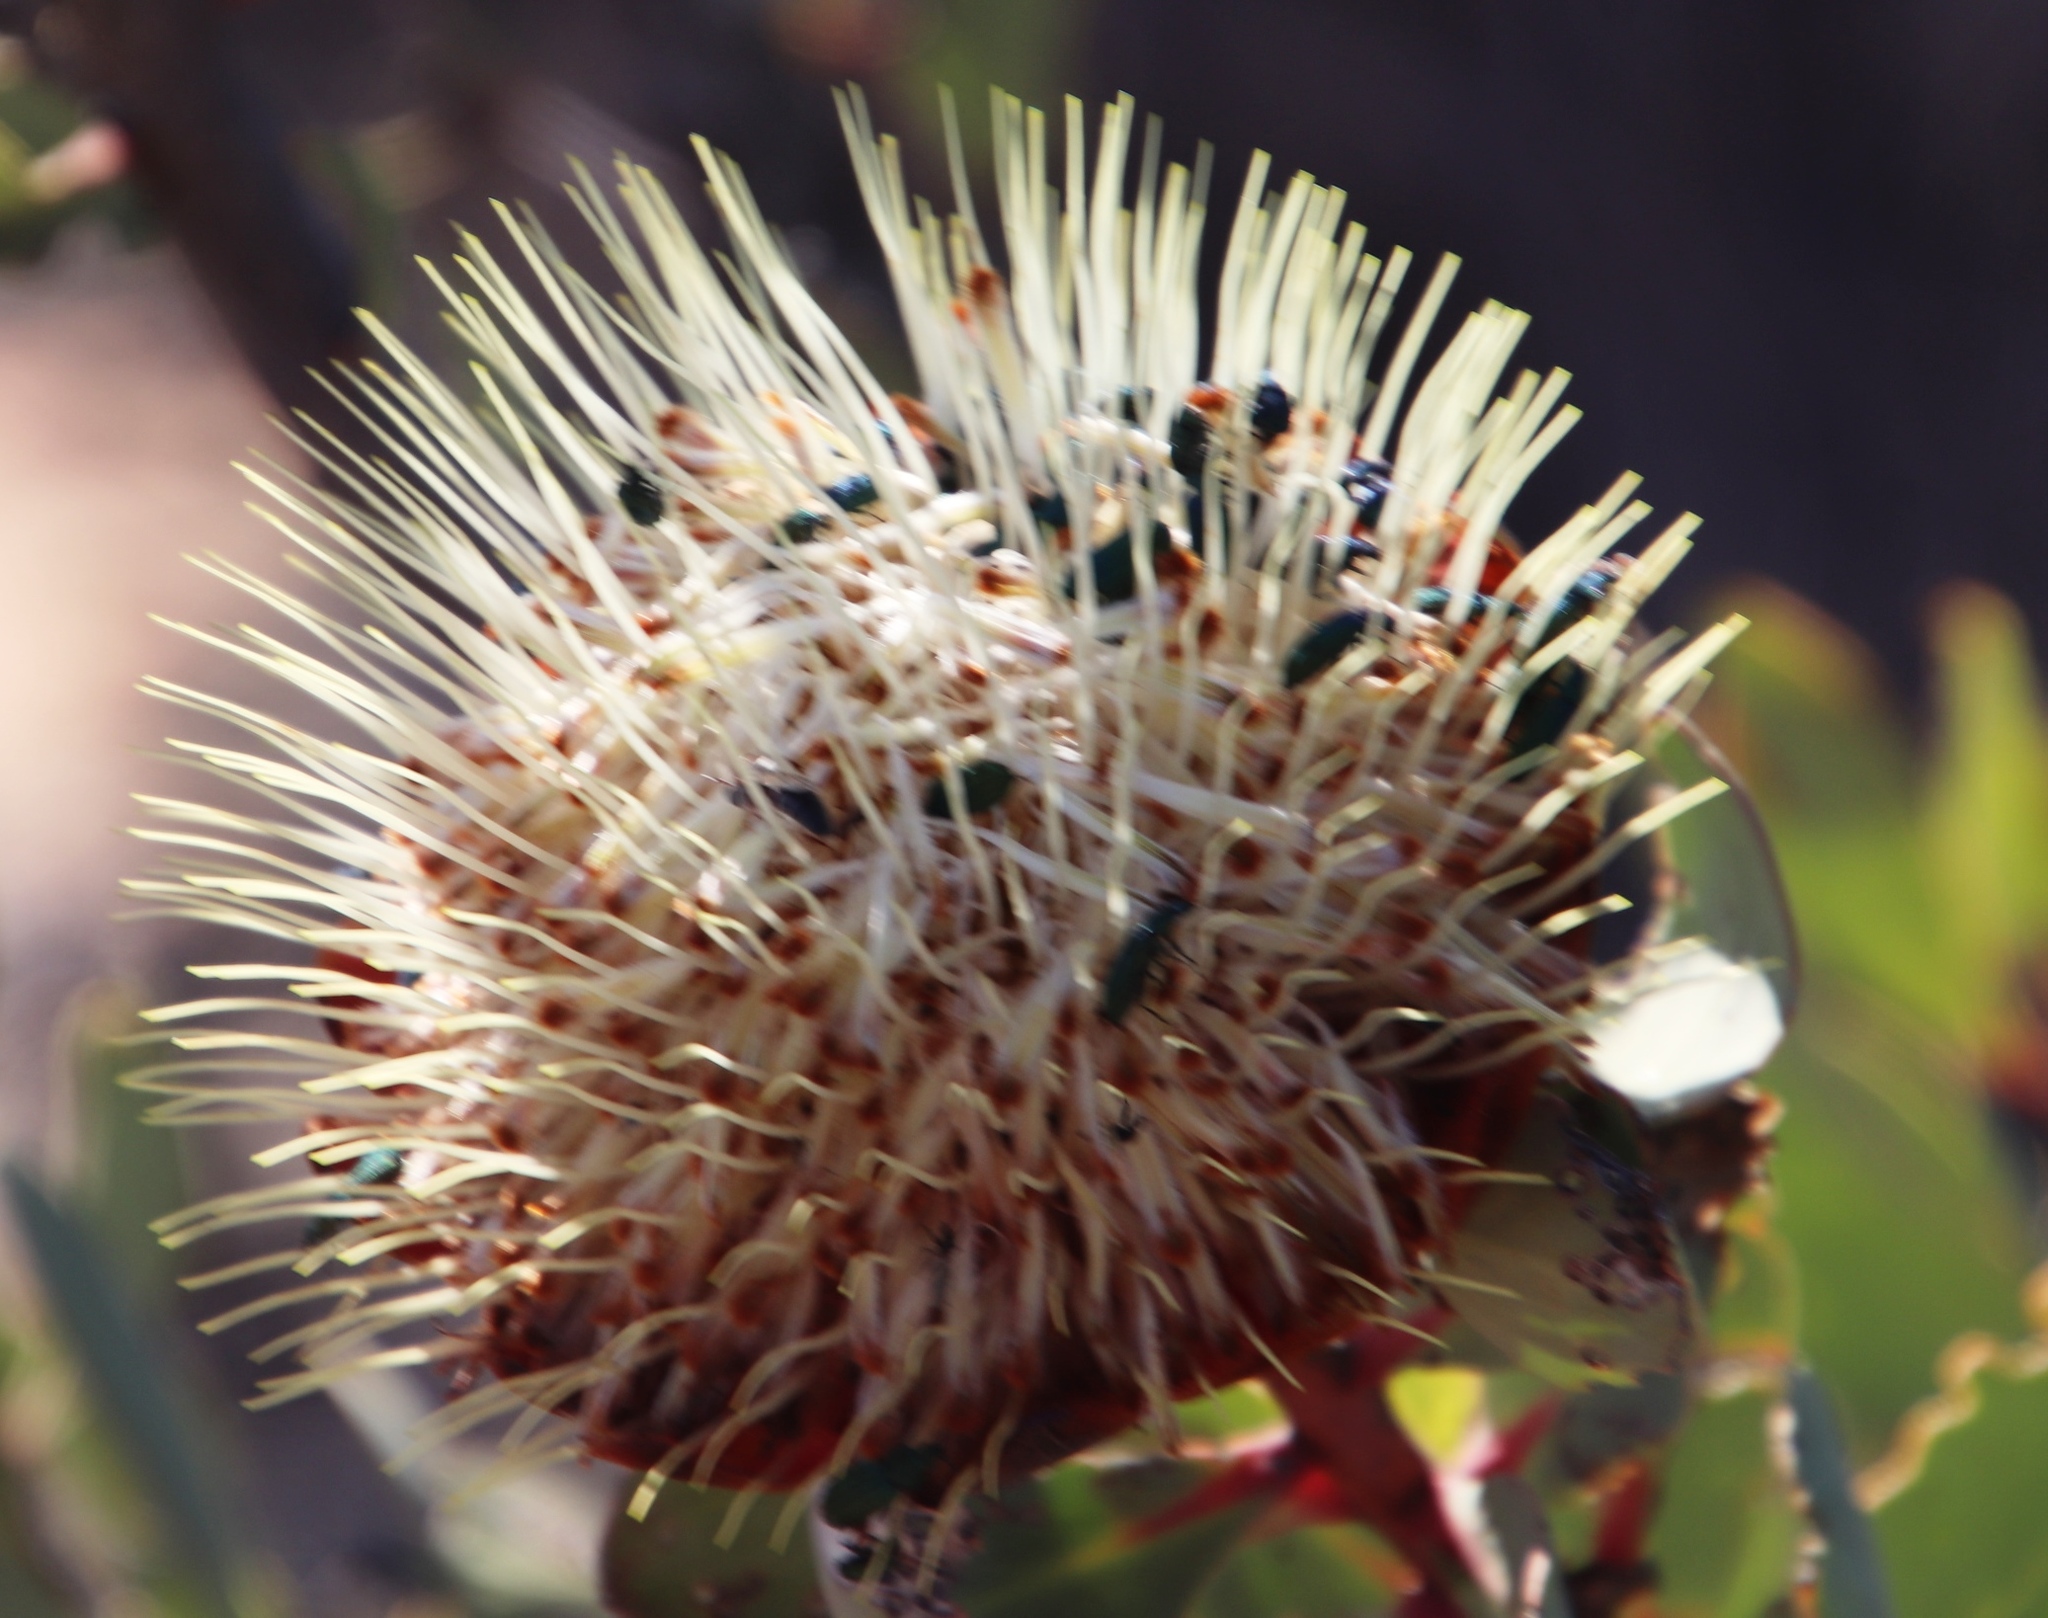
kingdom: Plantae
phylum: Tracheophyta
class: Magnoliopsida
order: Proteales
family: Proteaceae
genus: Protea
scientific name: Protea glabra
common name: Chestnut sugarbush
